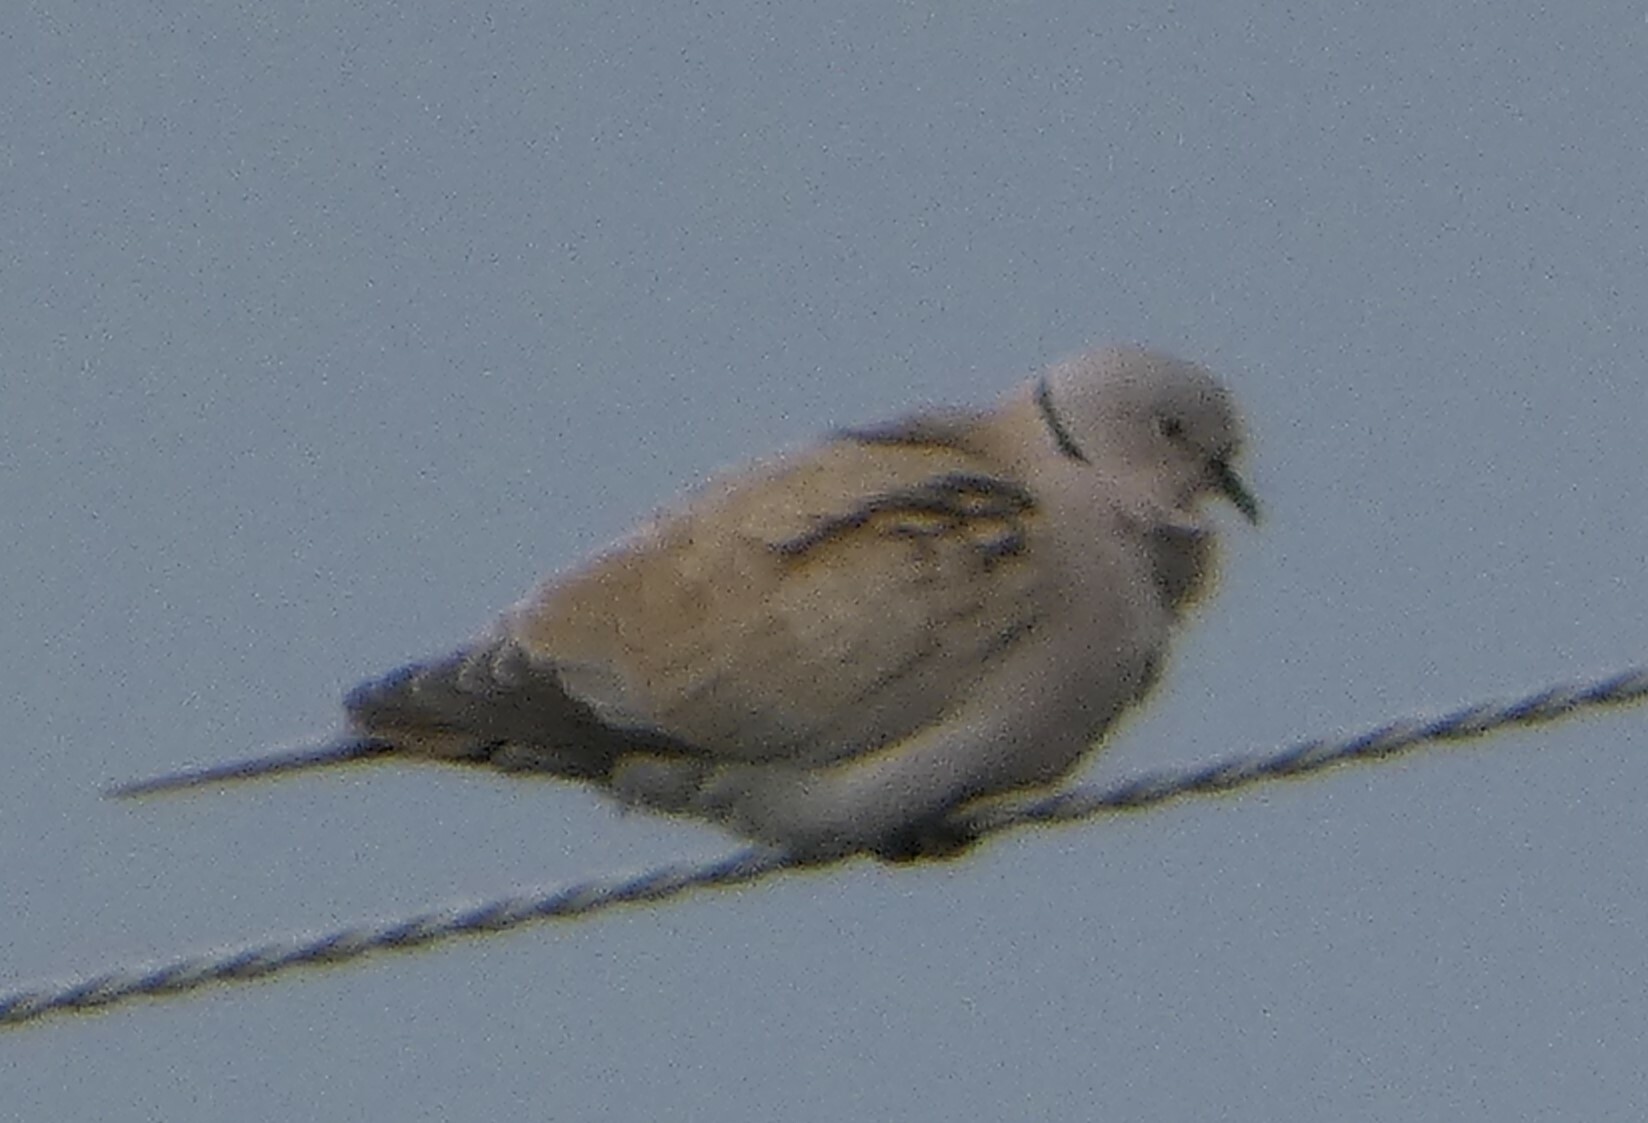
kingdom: Animalia
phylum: Chordata
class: Aves
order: Columbiformes
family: Columbidae
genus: Streptopelia
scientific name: Streptopelia decaocto
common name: Eurasian collared dove
